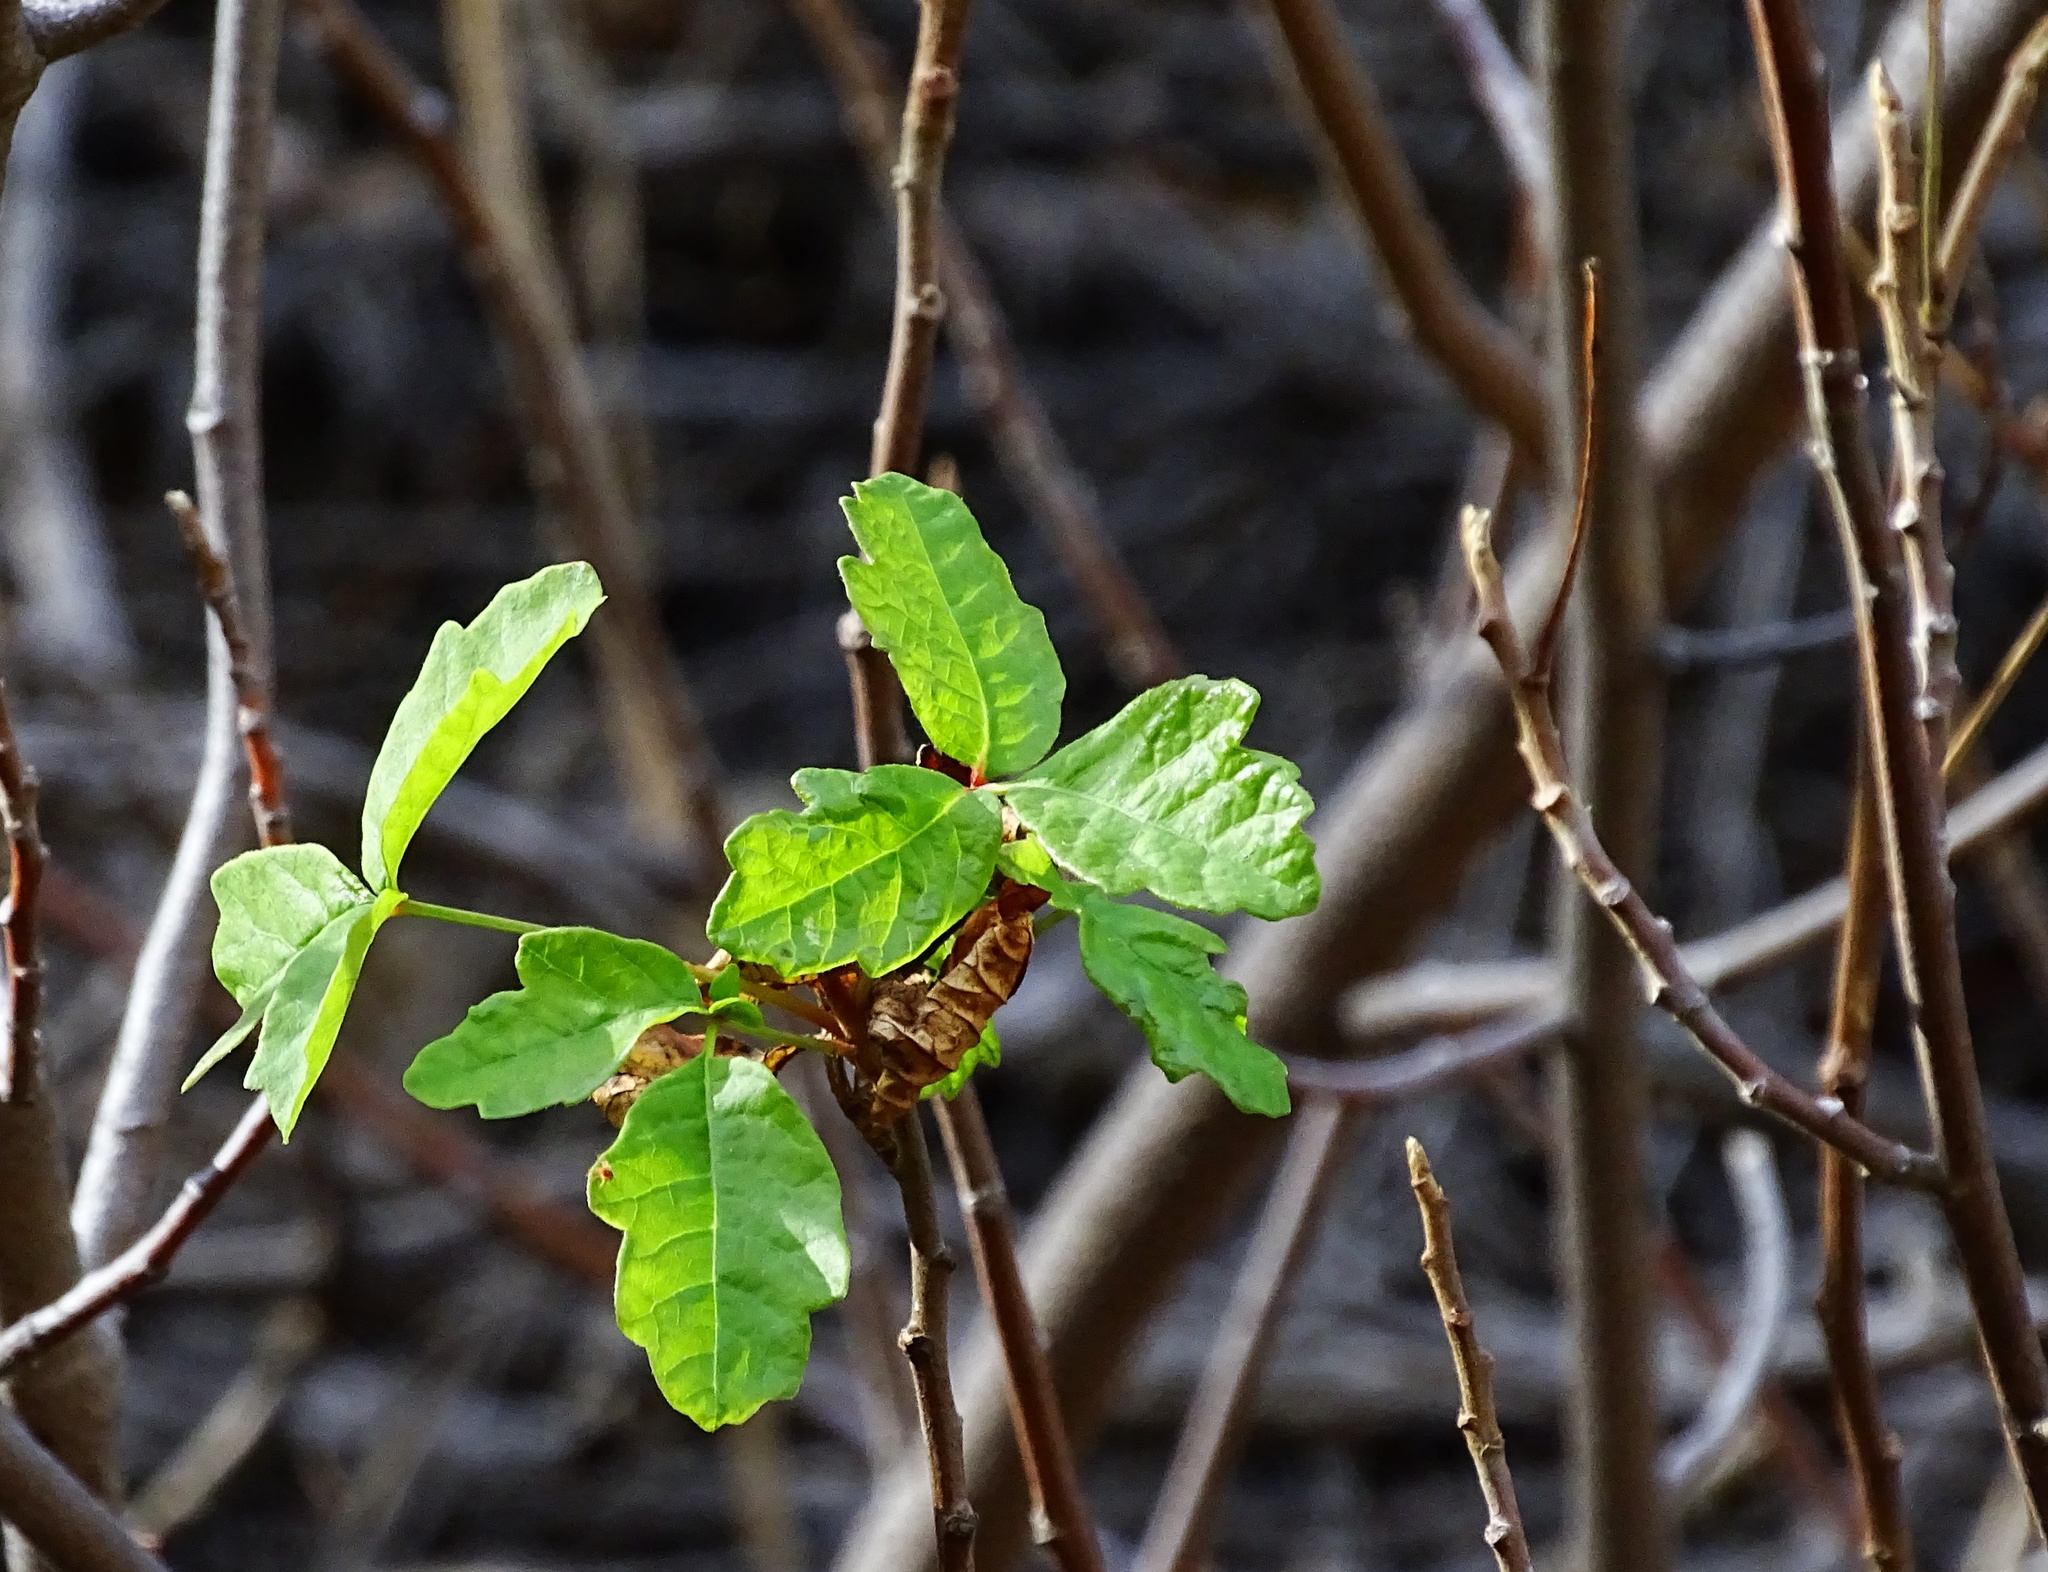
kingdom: Plantae
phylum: Tracheophyta
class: Magnoliopsida
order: Sapindales
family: Anacardiaceae
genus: Toxicodendron
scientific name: Toxicodendron diversilobum
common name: Pacific poison-oak
